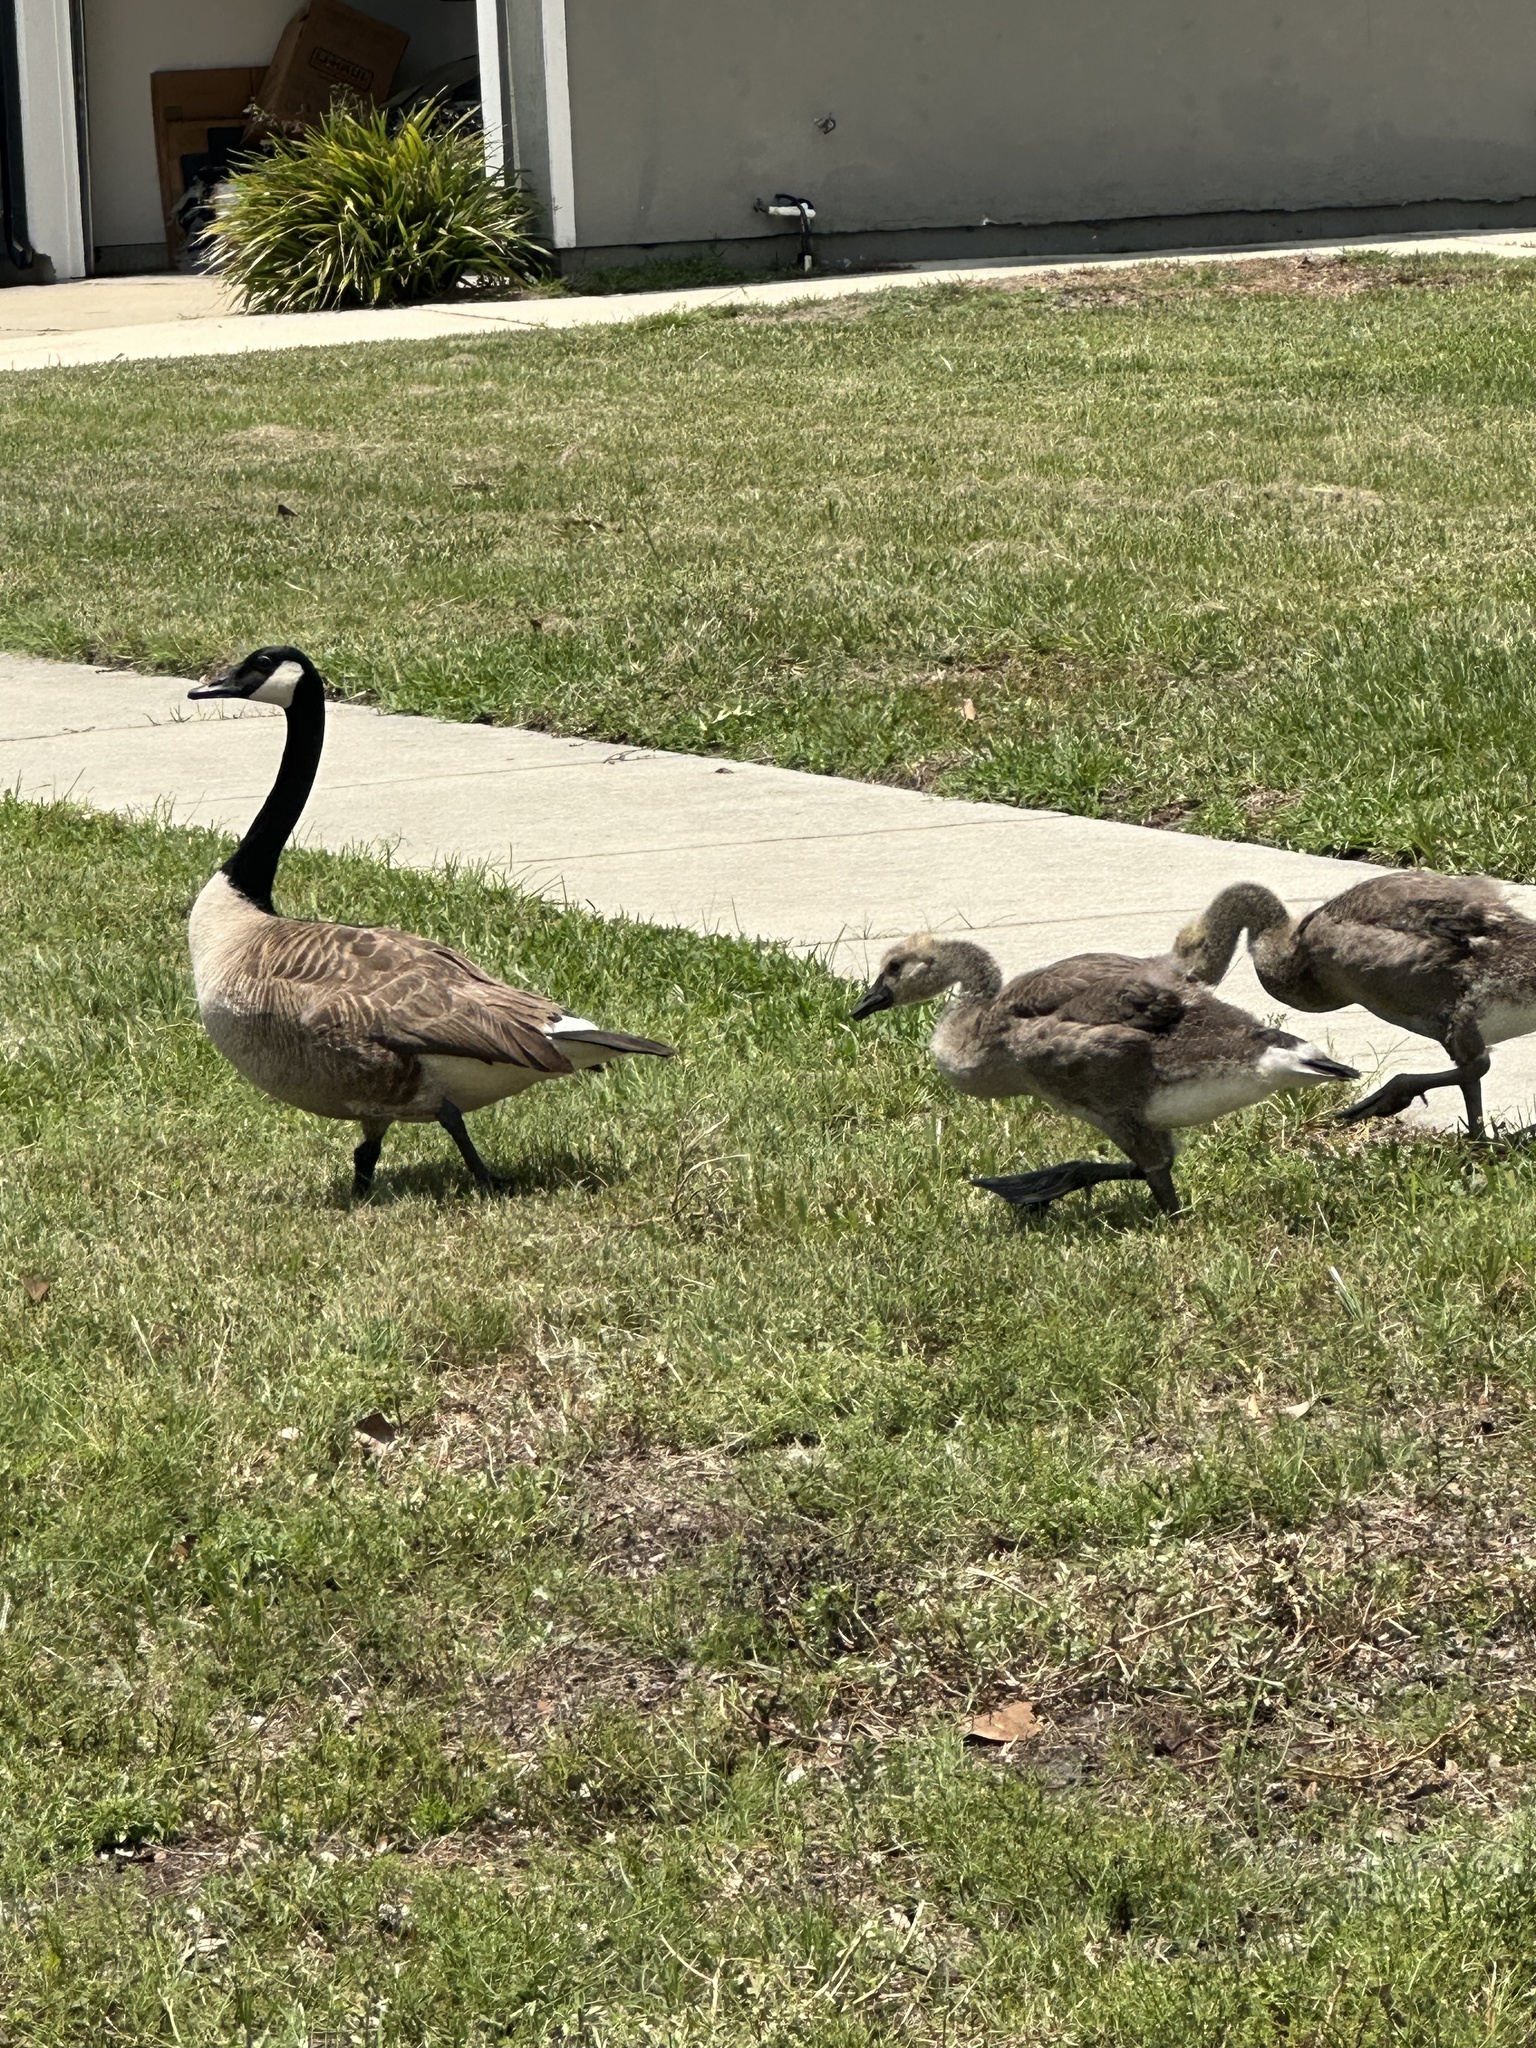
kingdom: Animalia
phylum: Chordata
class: Aves
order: Anseriformes
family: Anatidae
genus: Branta
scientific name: Branta canadensis
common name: Canada goose
